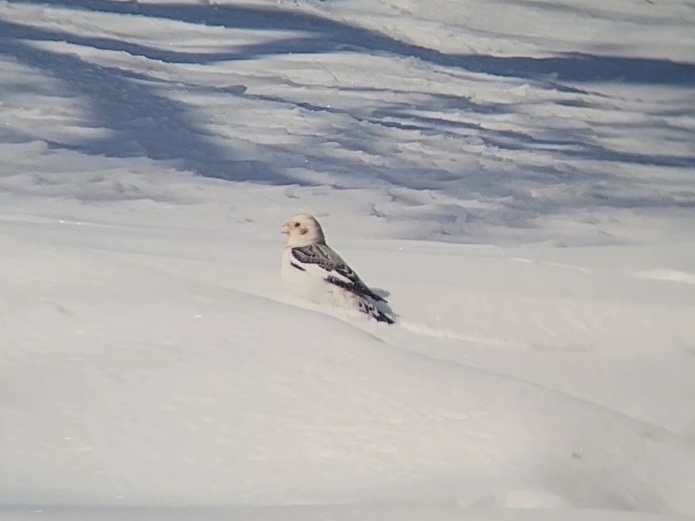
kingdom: Animalia
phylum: Chordata
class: Aves
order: Passeriformes
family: Calcariidae
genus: Plectrophenax
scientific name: Plectrophenax nivalis
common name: Snow bunting
